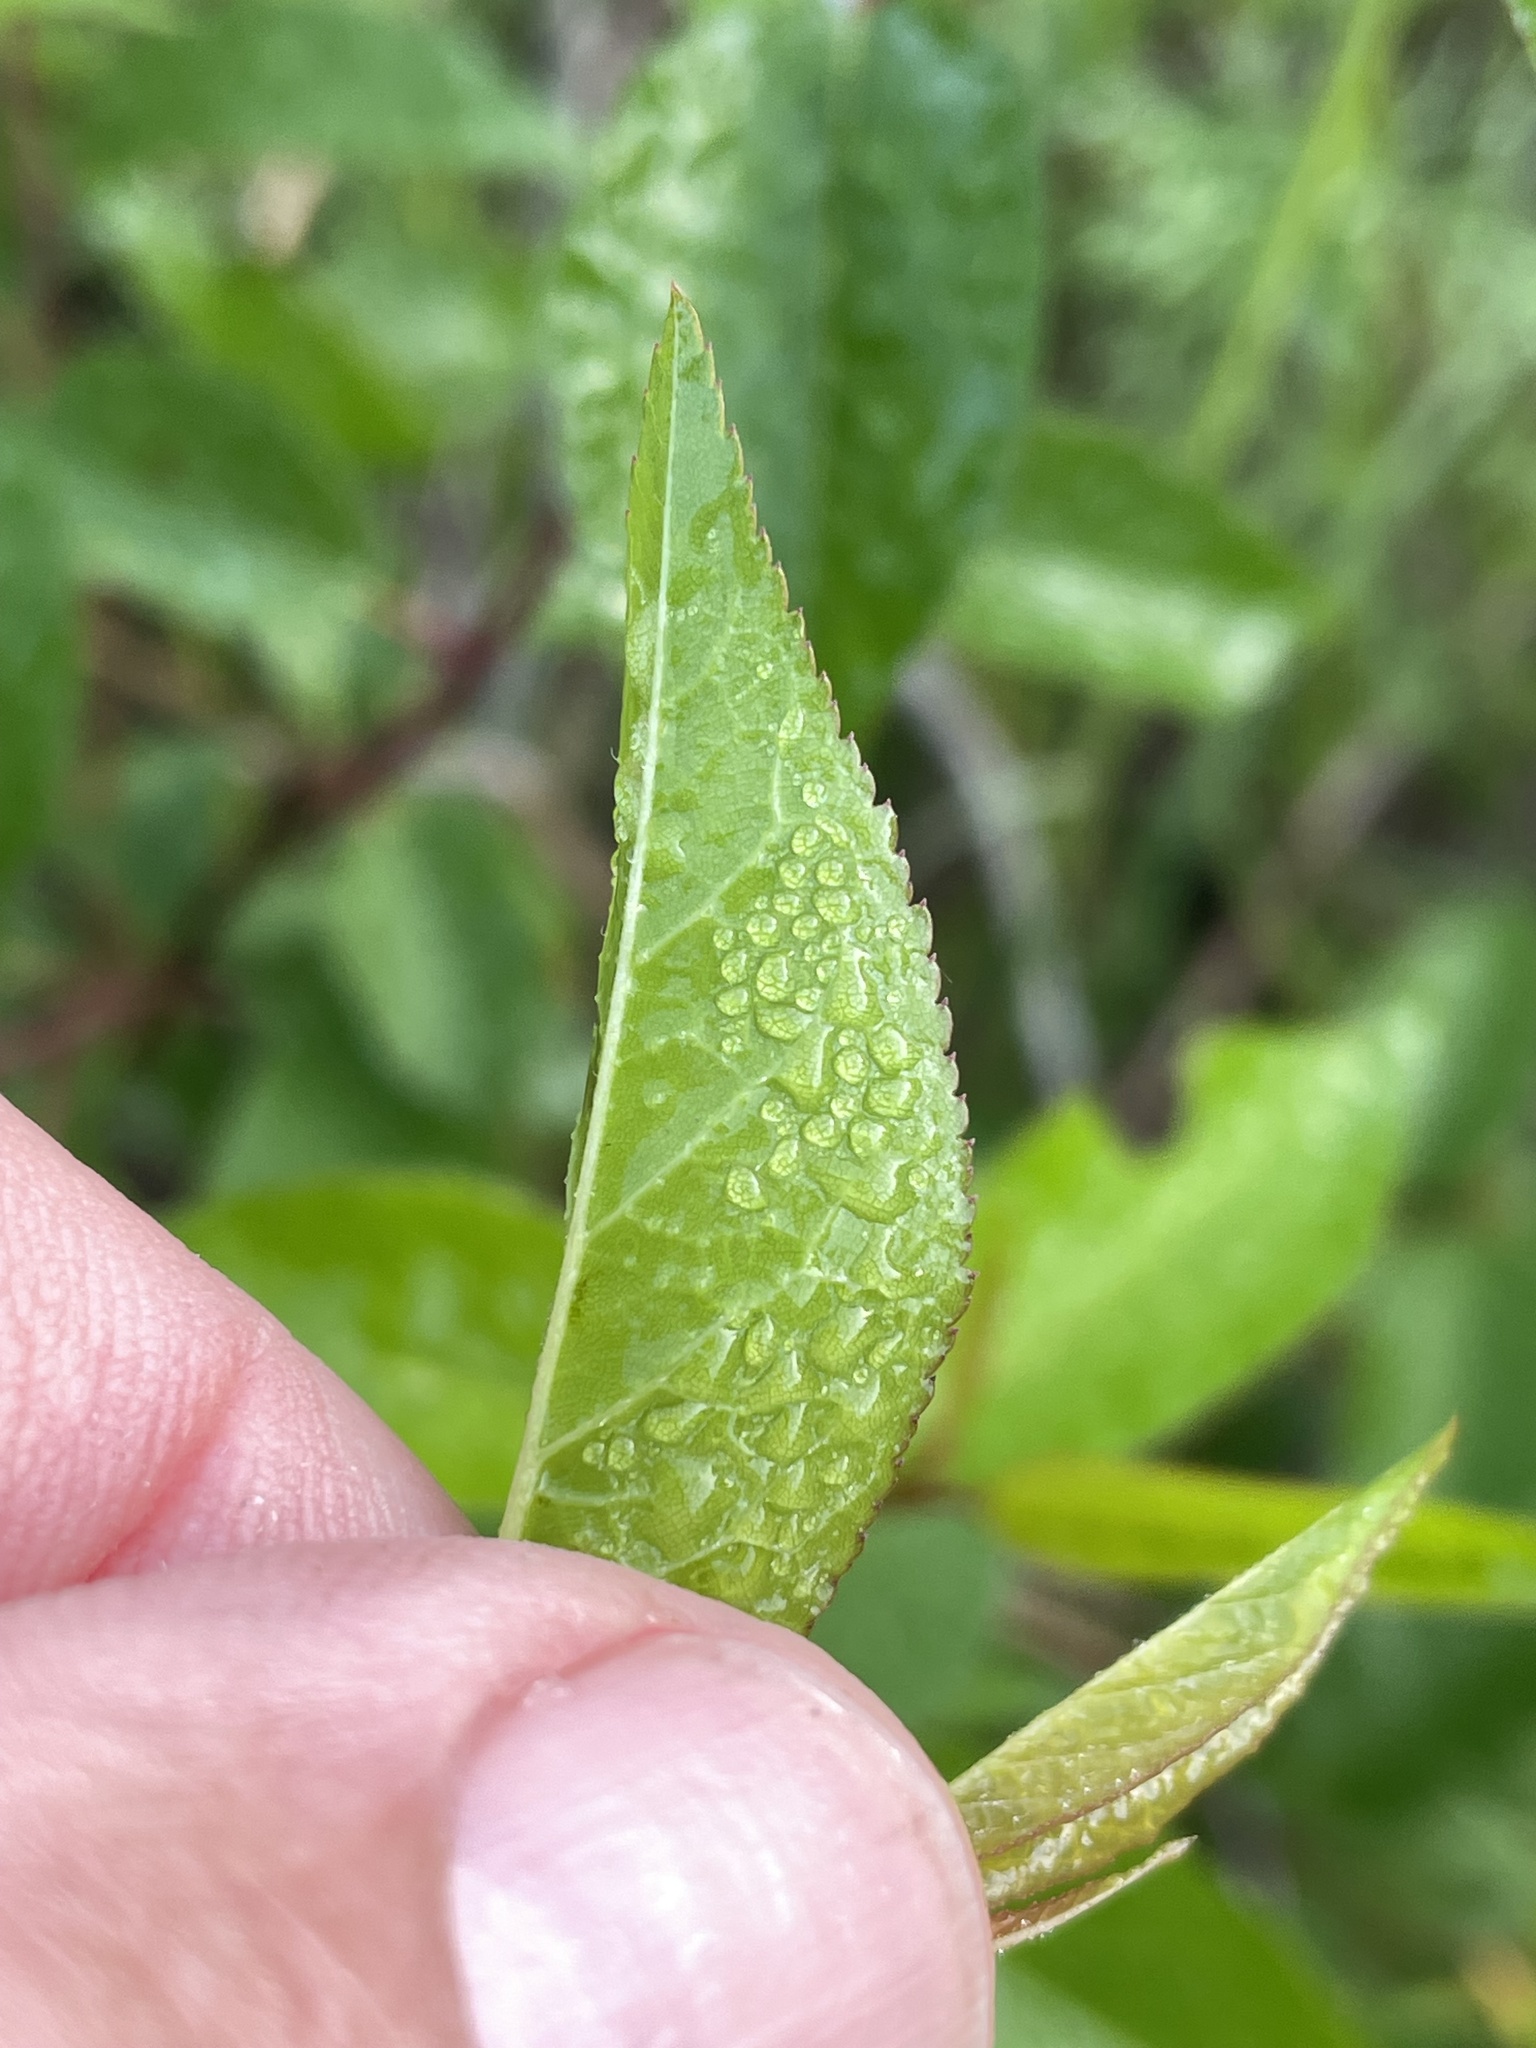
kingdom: Plantae
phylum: Tracheophyta
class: Magnoliopsida
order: Rosales
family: Rosaceae
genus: Prunus
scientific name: Prunus rivularis
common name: Creek plum
